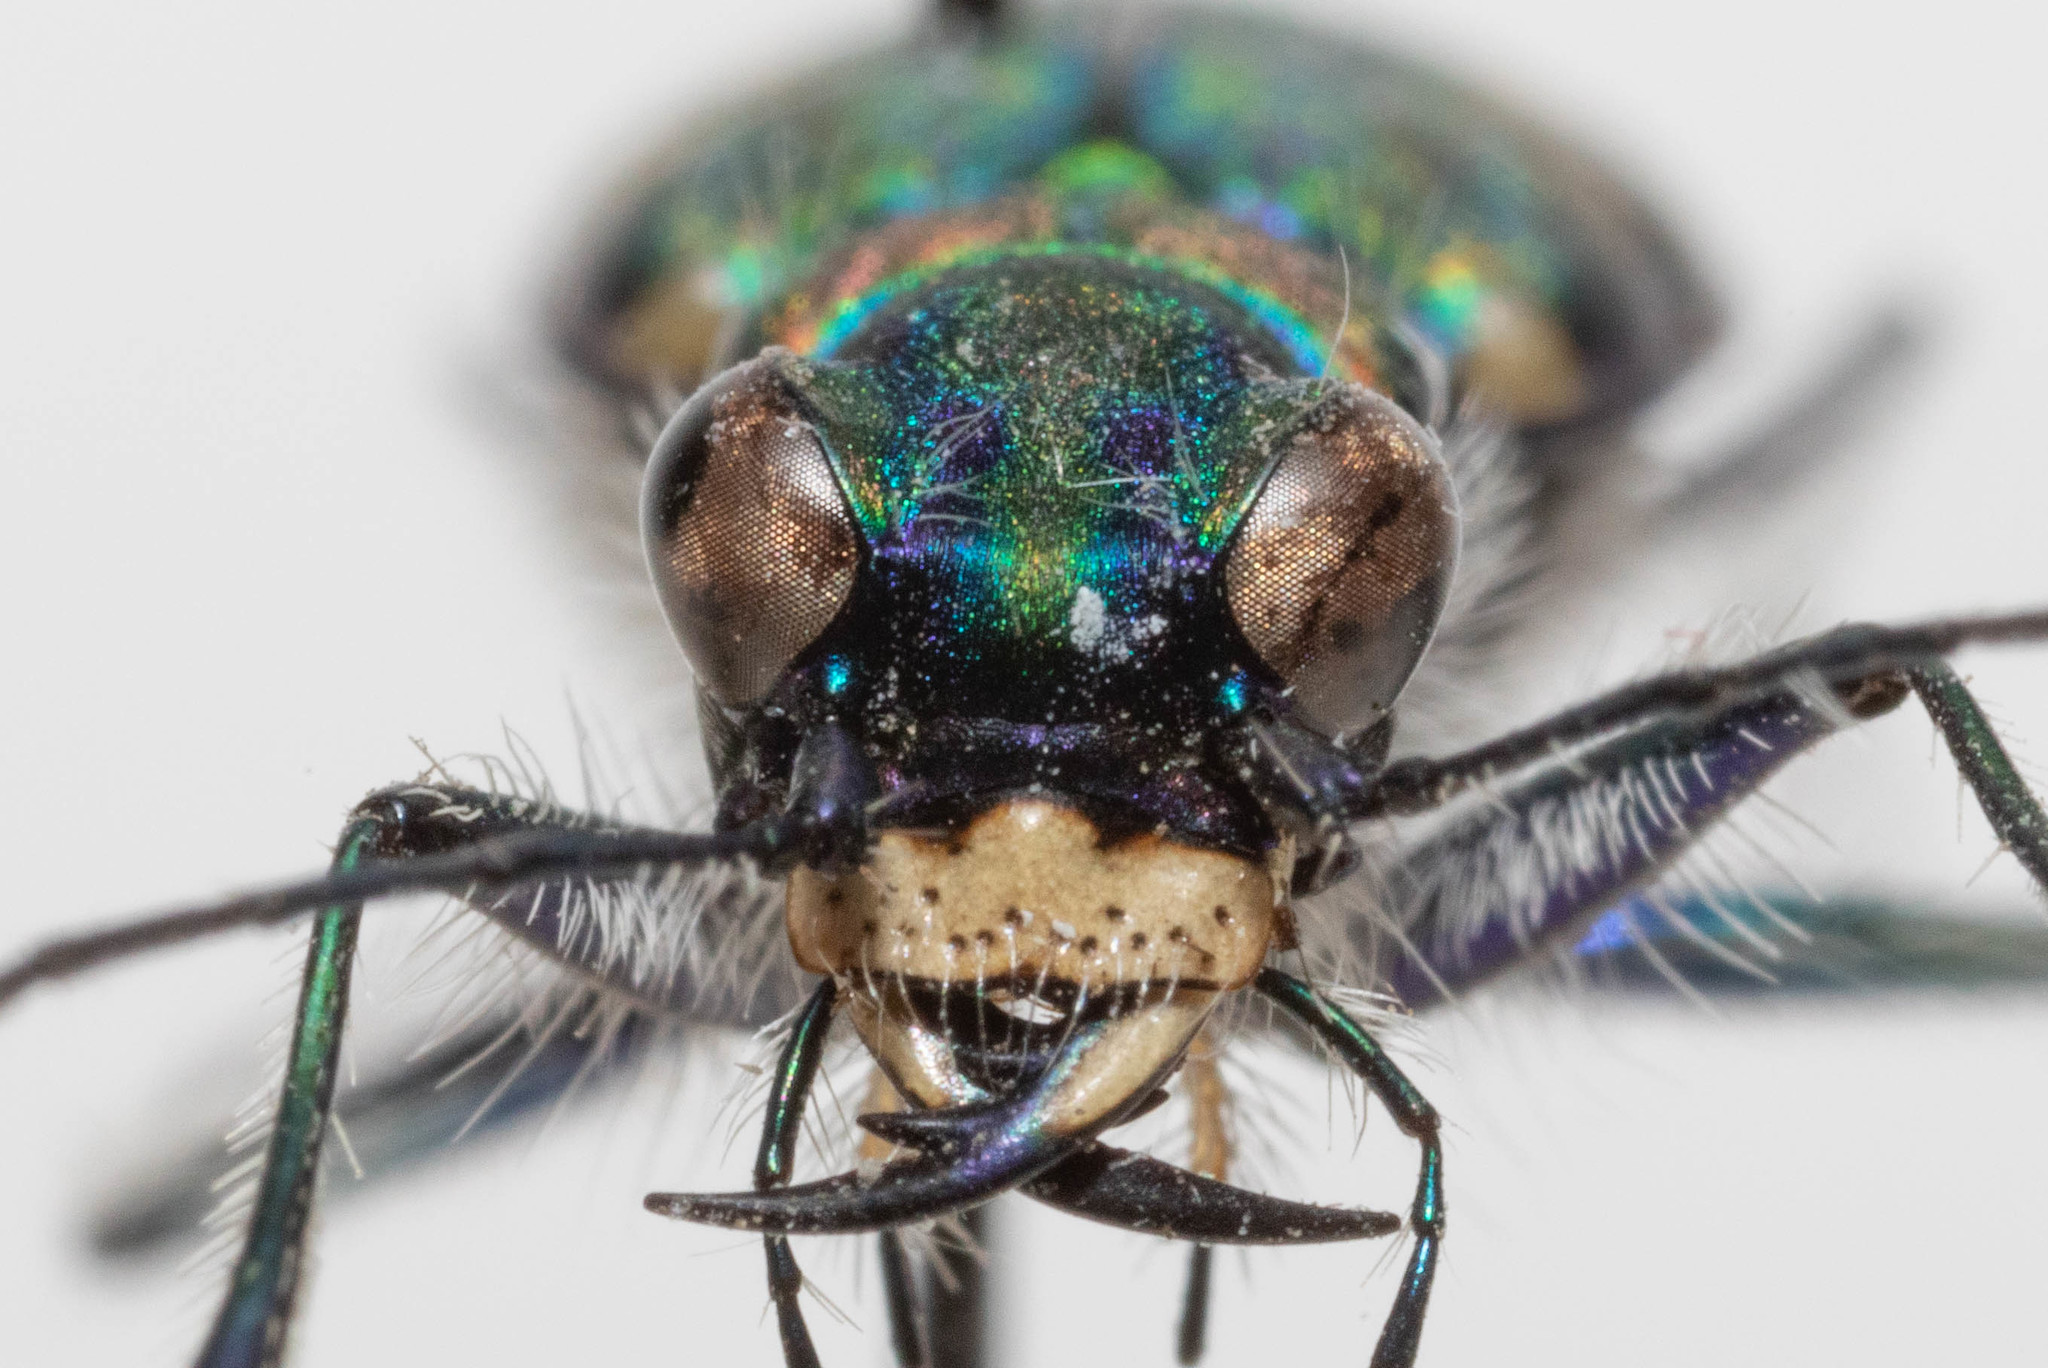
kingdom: Animalia
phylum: Arthropoda
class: Insecta
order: Coleoptera
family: Carabidae
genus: Cicindela
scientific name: Cicindela oregona
